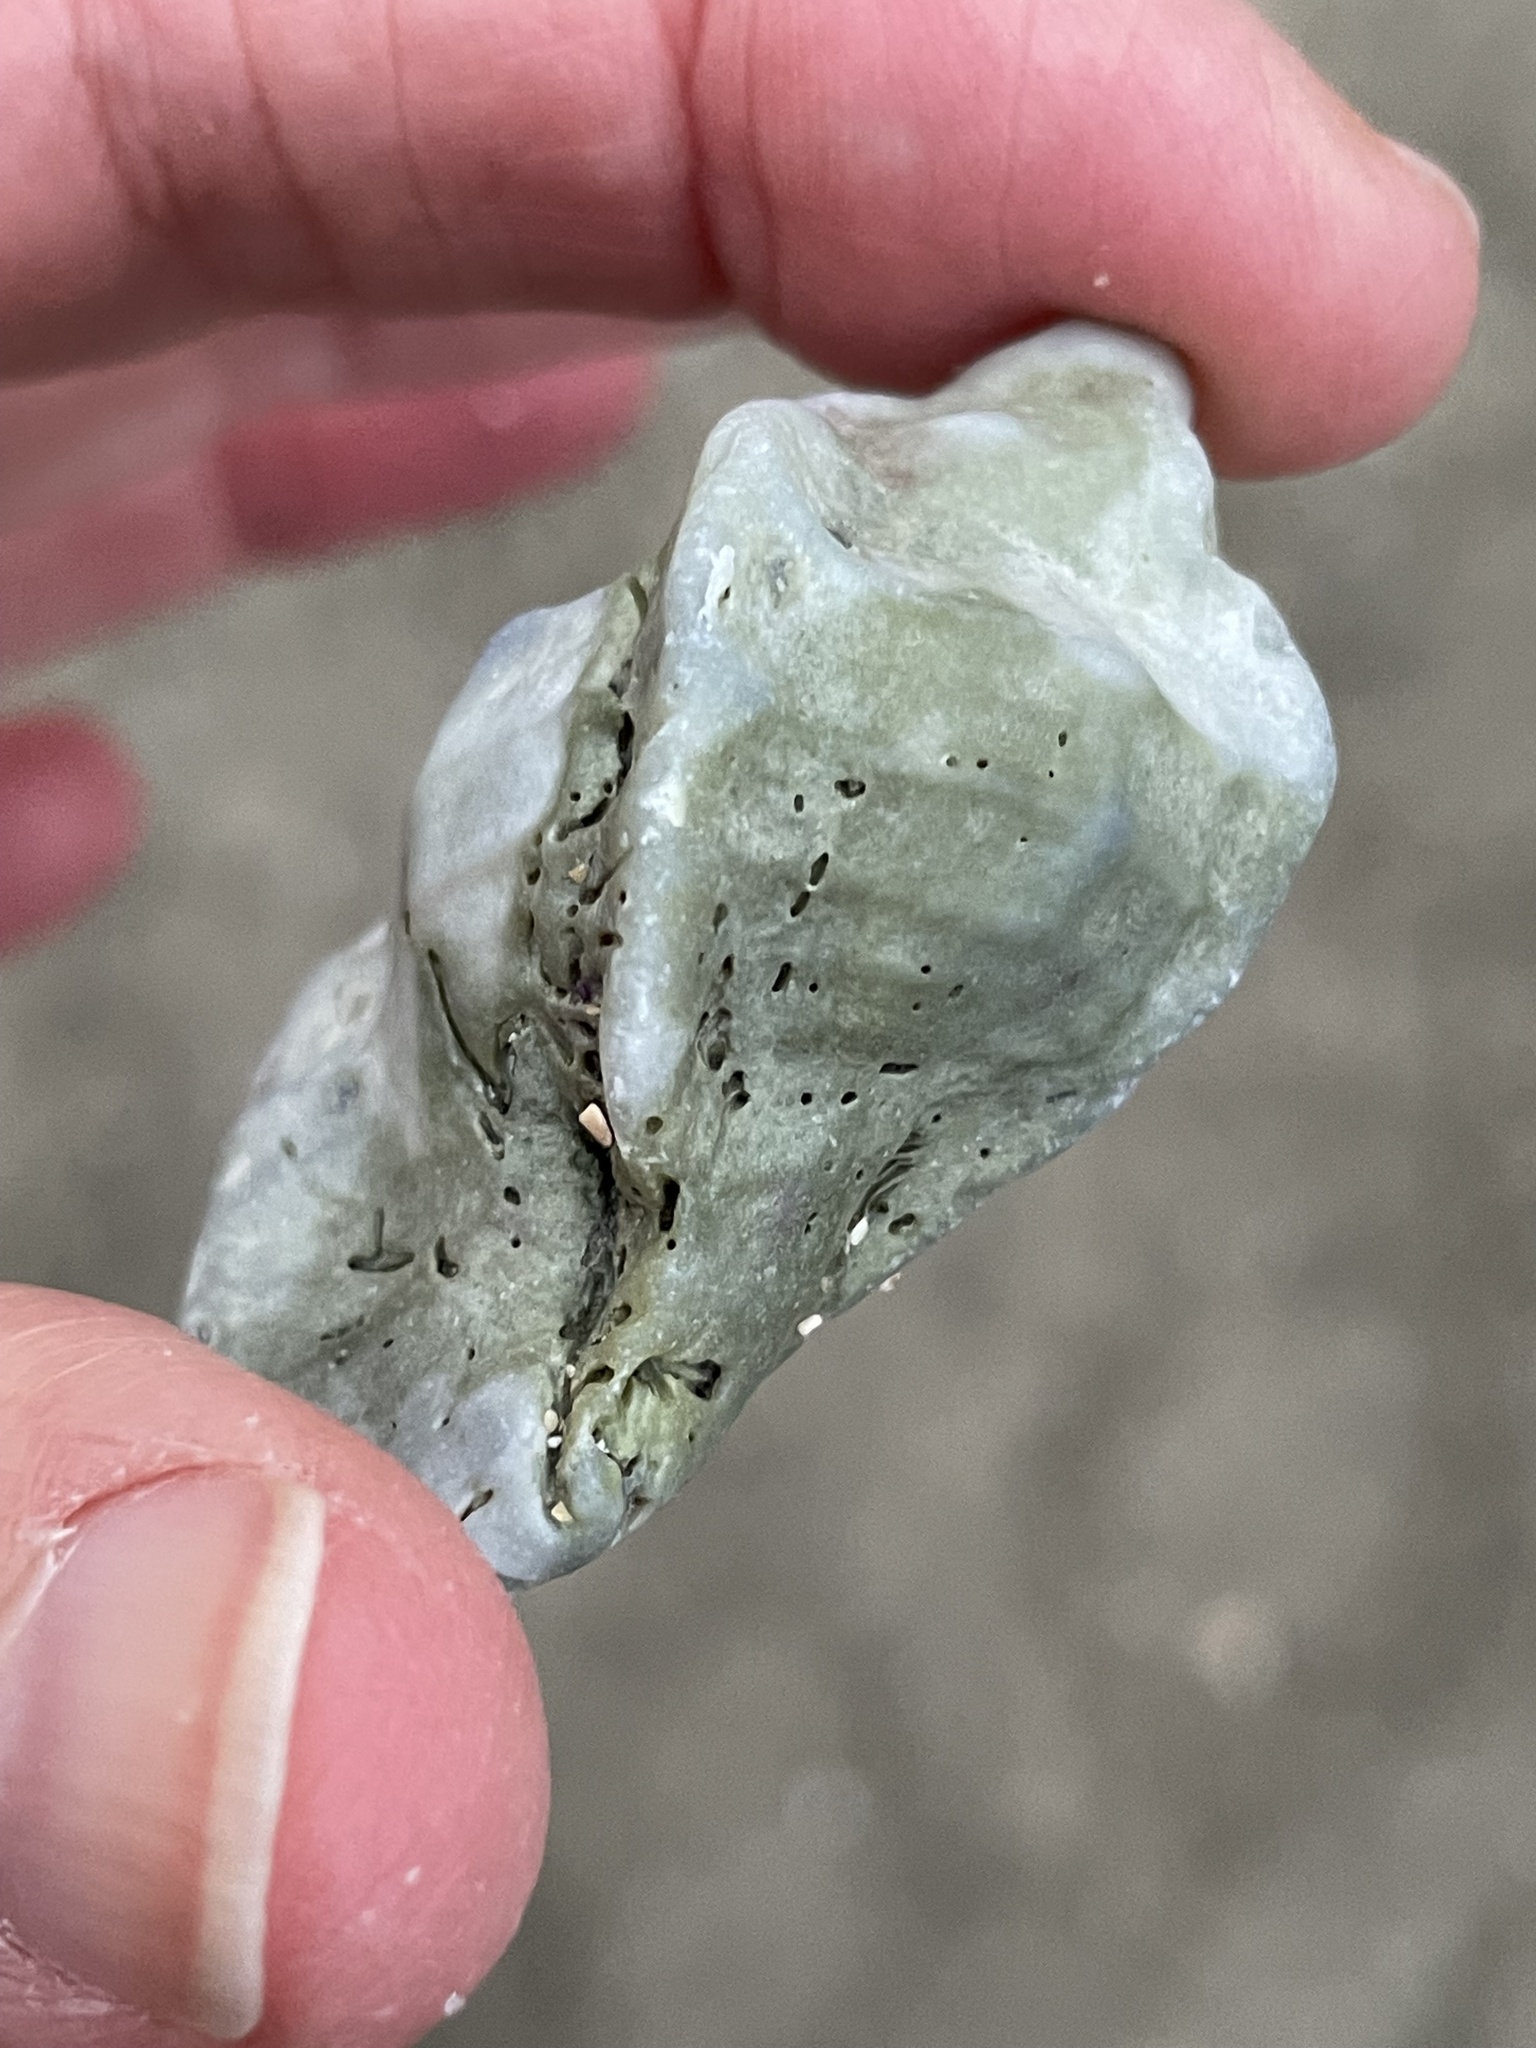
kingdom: Animalia
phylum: Mollusca
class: Gastropoda
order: Neogastropoda
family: Muricidae
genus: Ceratostoma
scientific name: Ceratostoma foliatum
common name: Foliate thorn purpura
